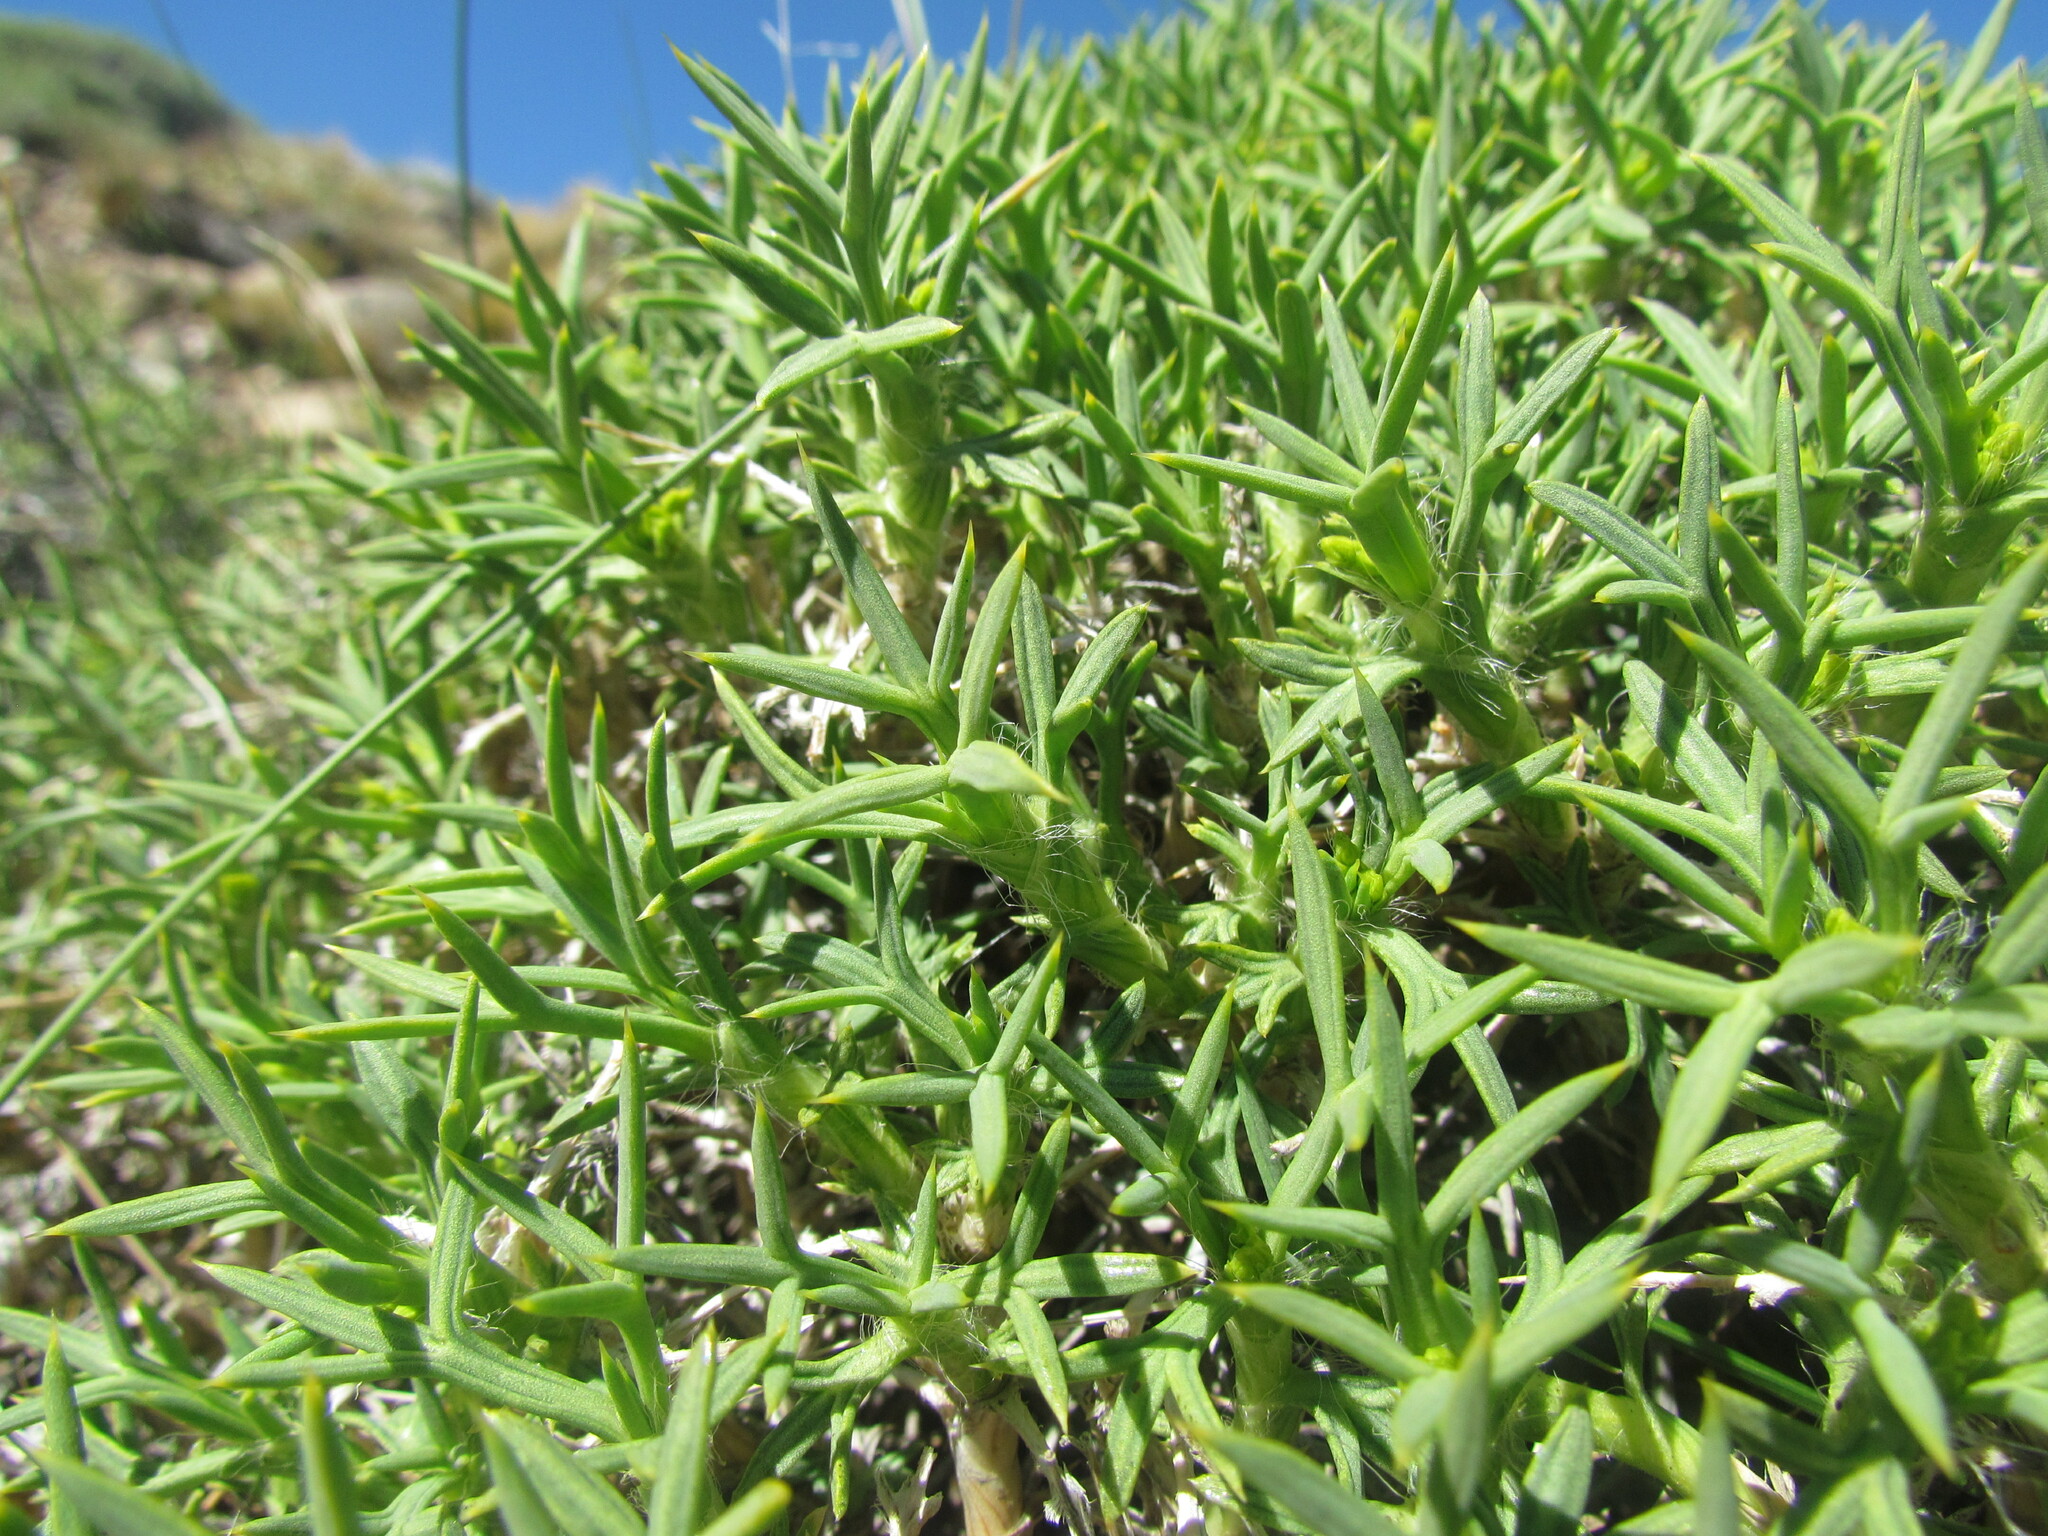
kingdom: Plantae
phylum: Tracheophyta
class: Magnoliopsida
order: Apiales
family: Apiaceae
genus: Azorella
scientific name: Azorella prolifera
